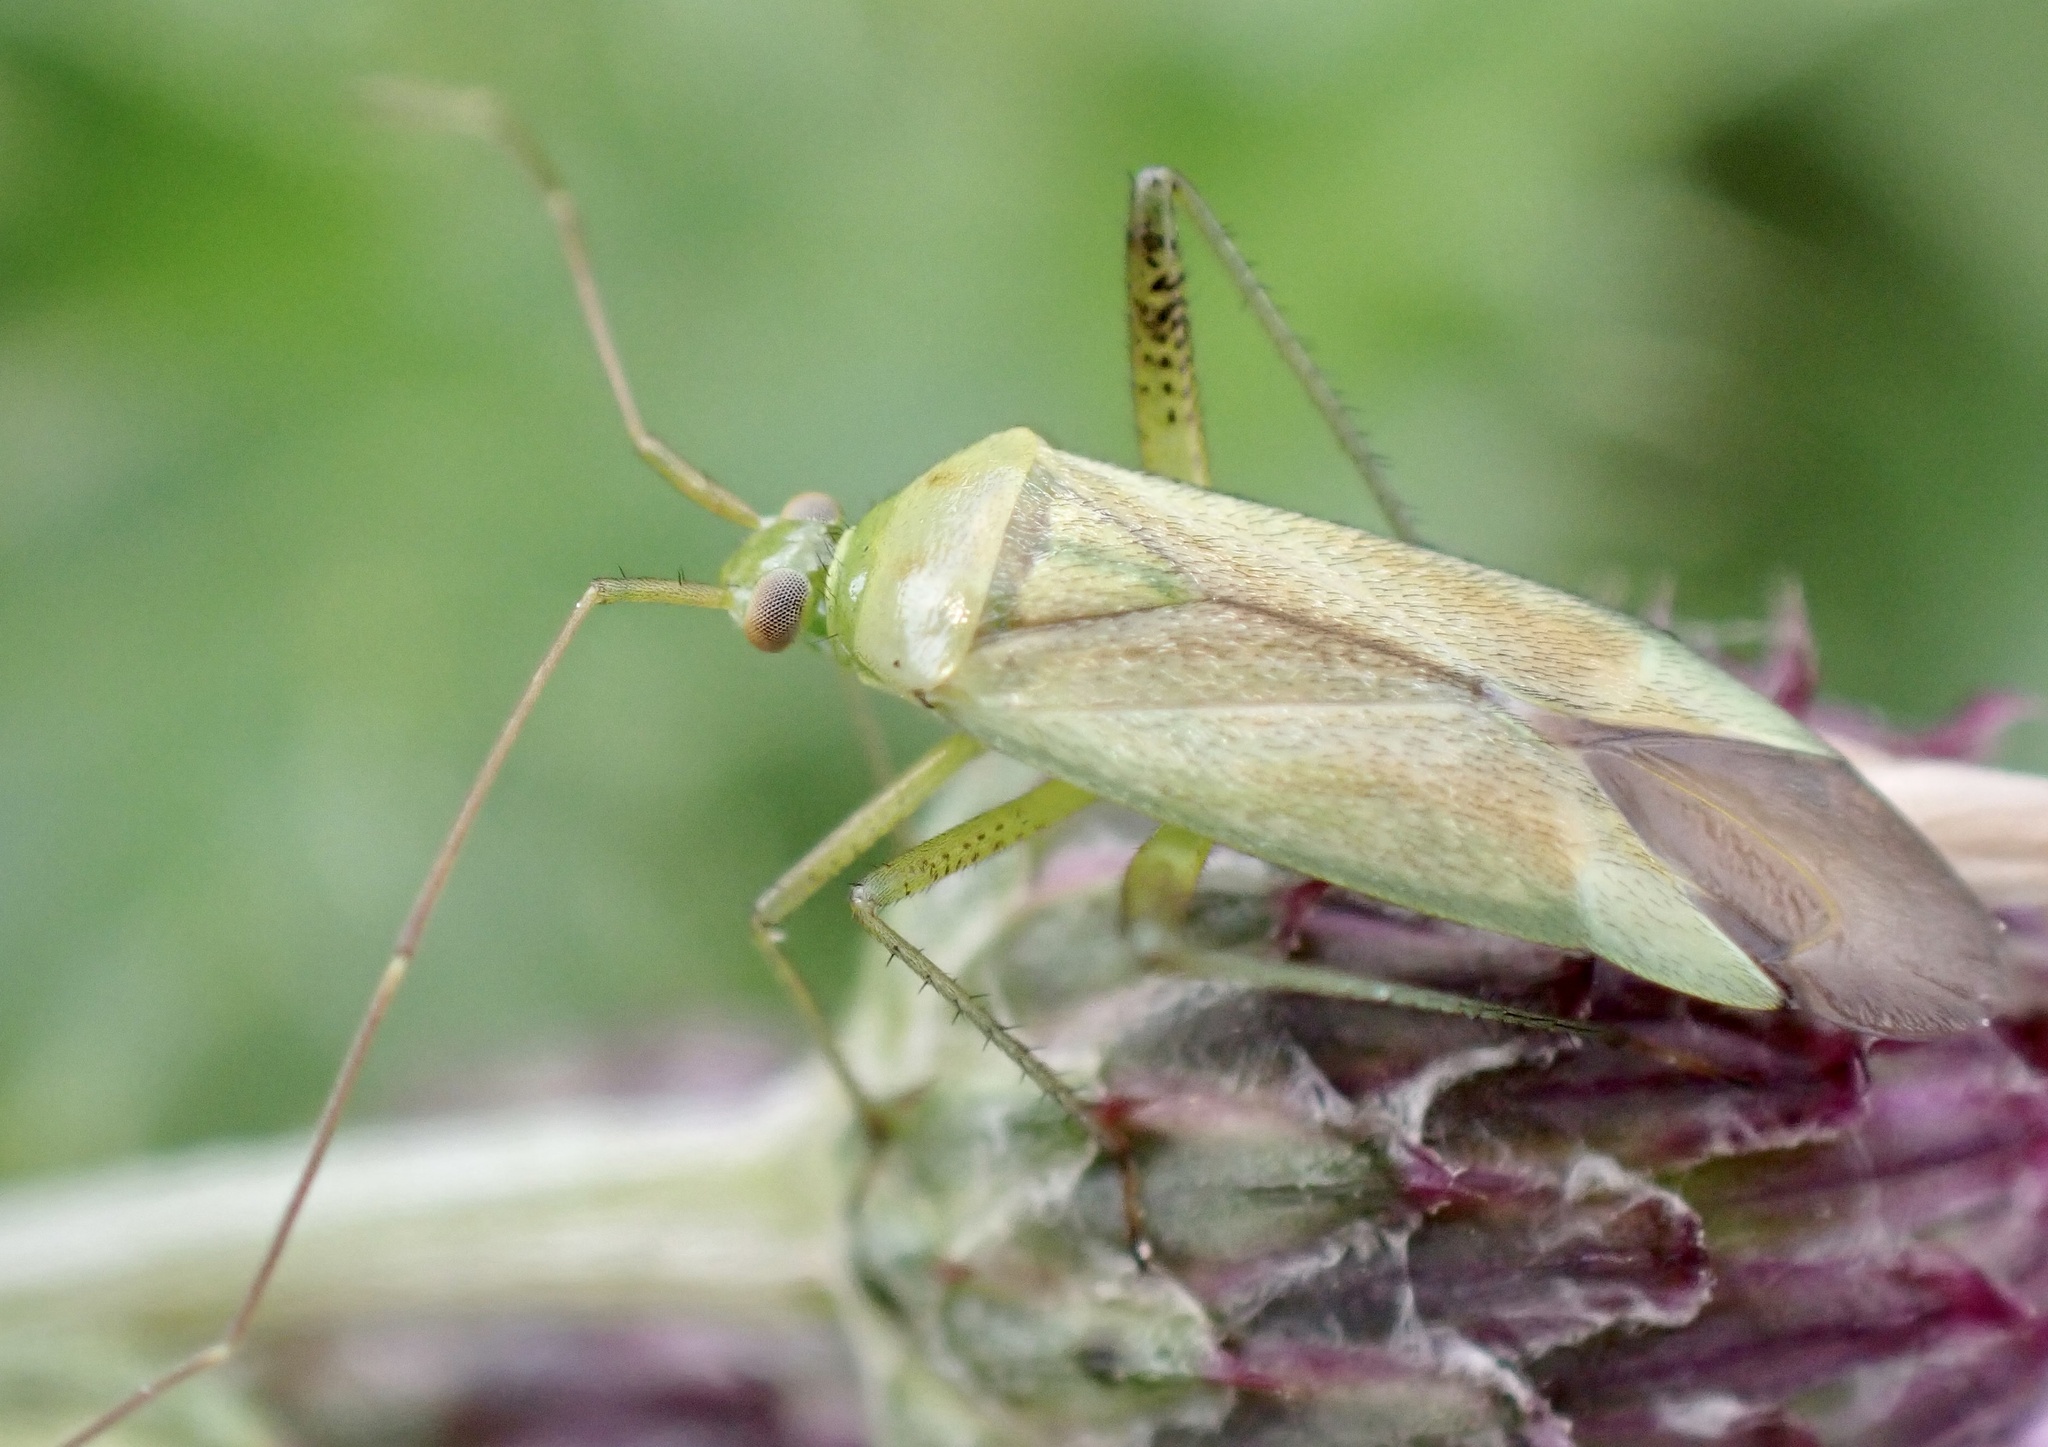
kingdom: Animalia
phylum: Arthropoda
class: Insecta
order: Hemiptera
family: Miridae
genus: Adelphocoris
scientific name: Adelphocoris quadripunctatus
